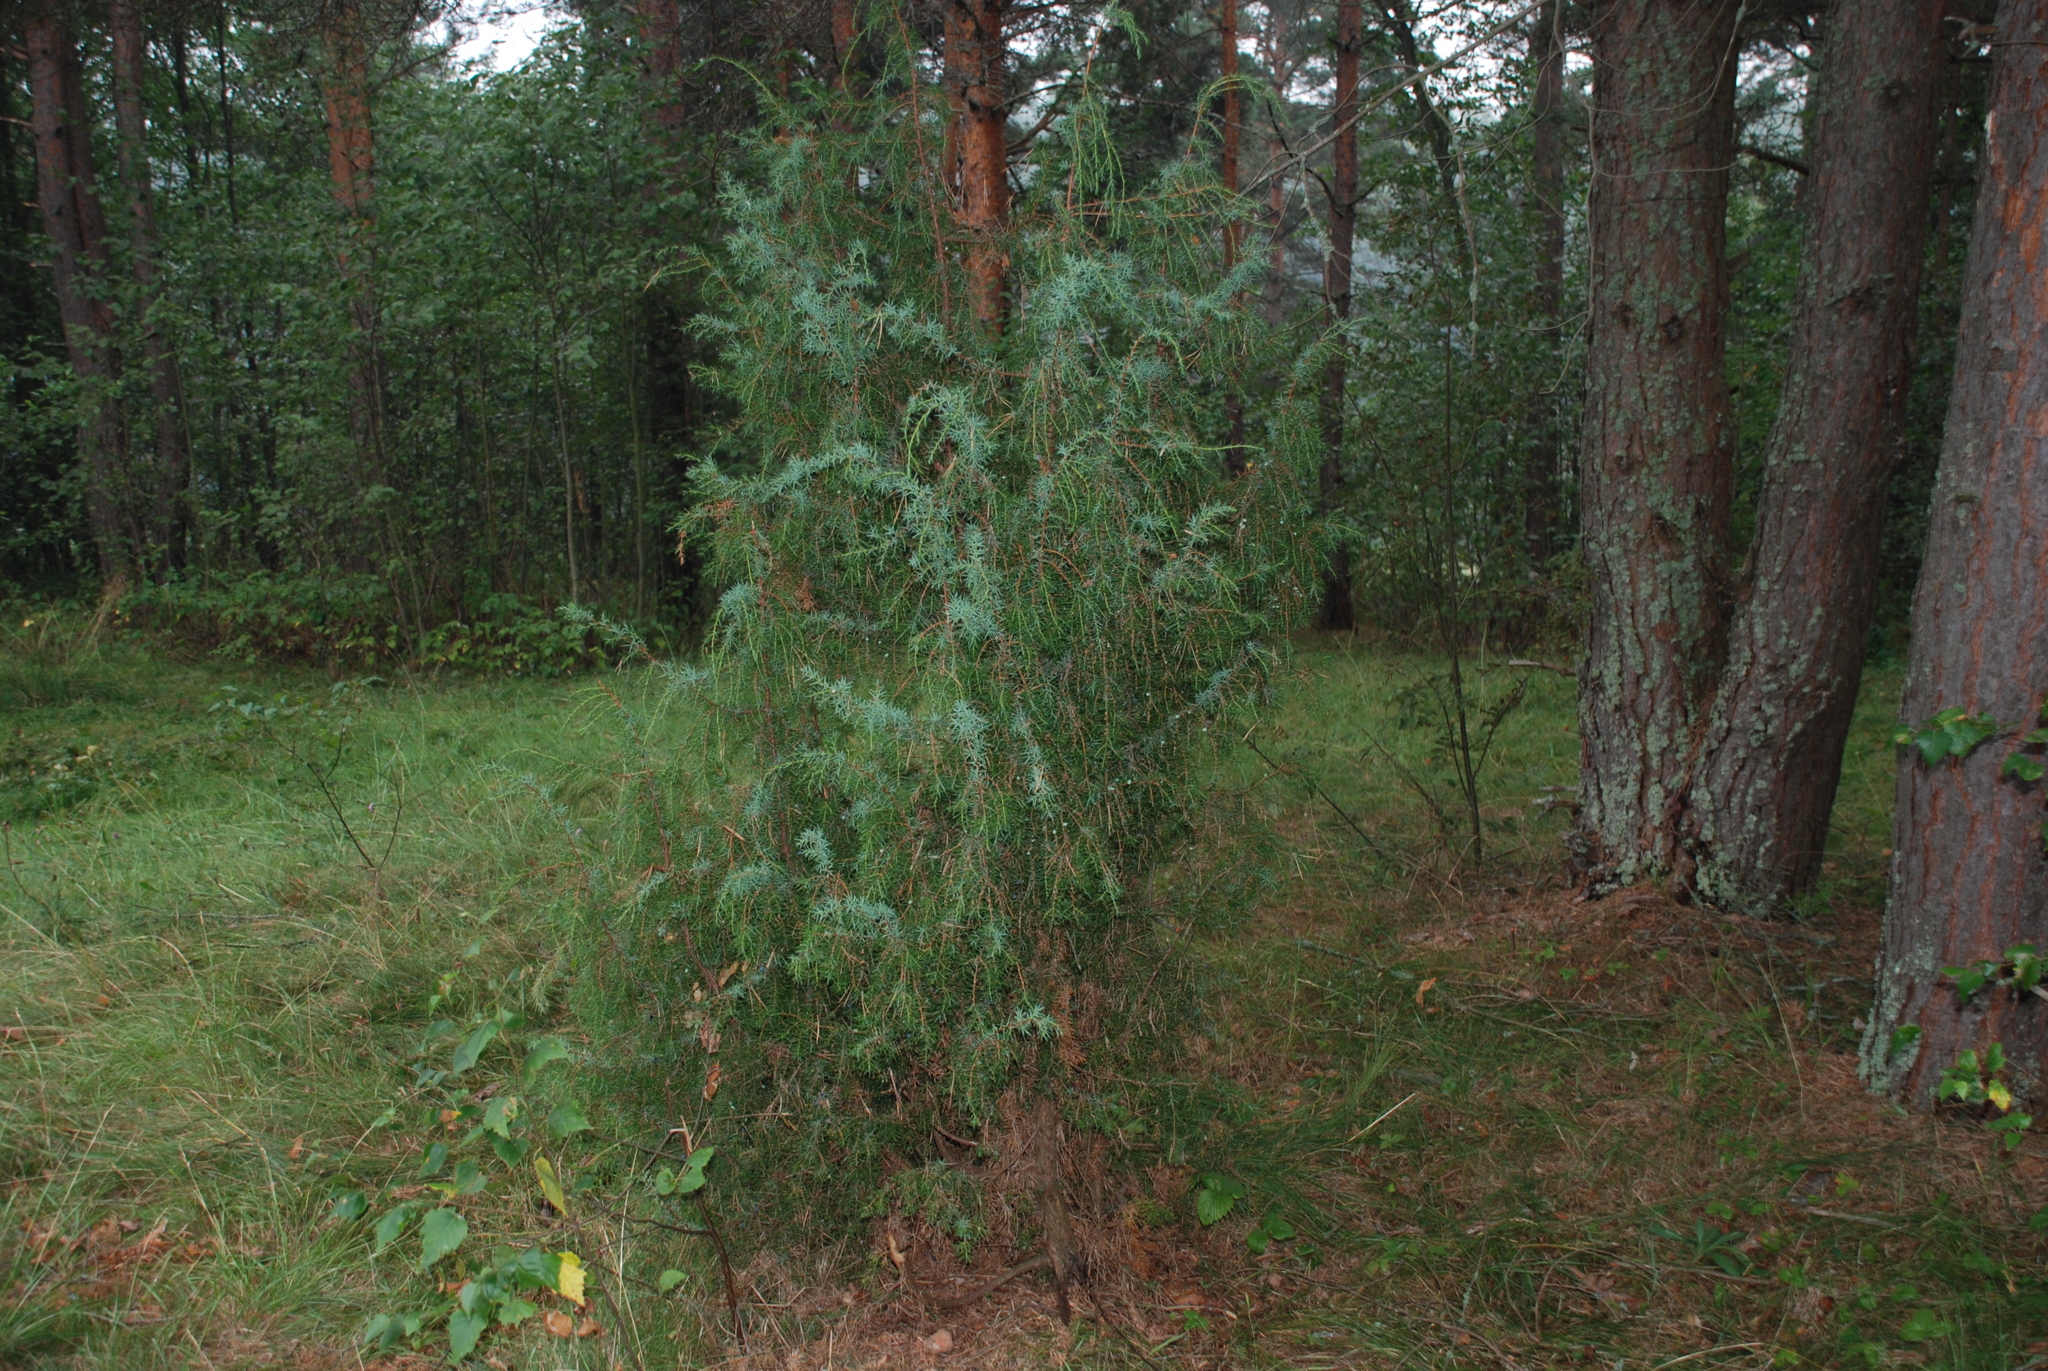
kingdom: Plantae
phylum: Tracheophyta
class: Pinopsida
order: Pinales
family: Cupressaceae
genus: Juniperus
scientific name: Juniperus communis
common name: Common juniper
